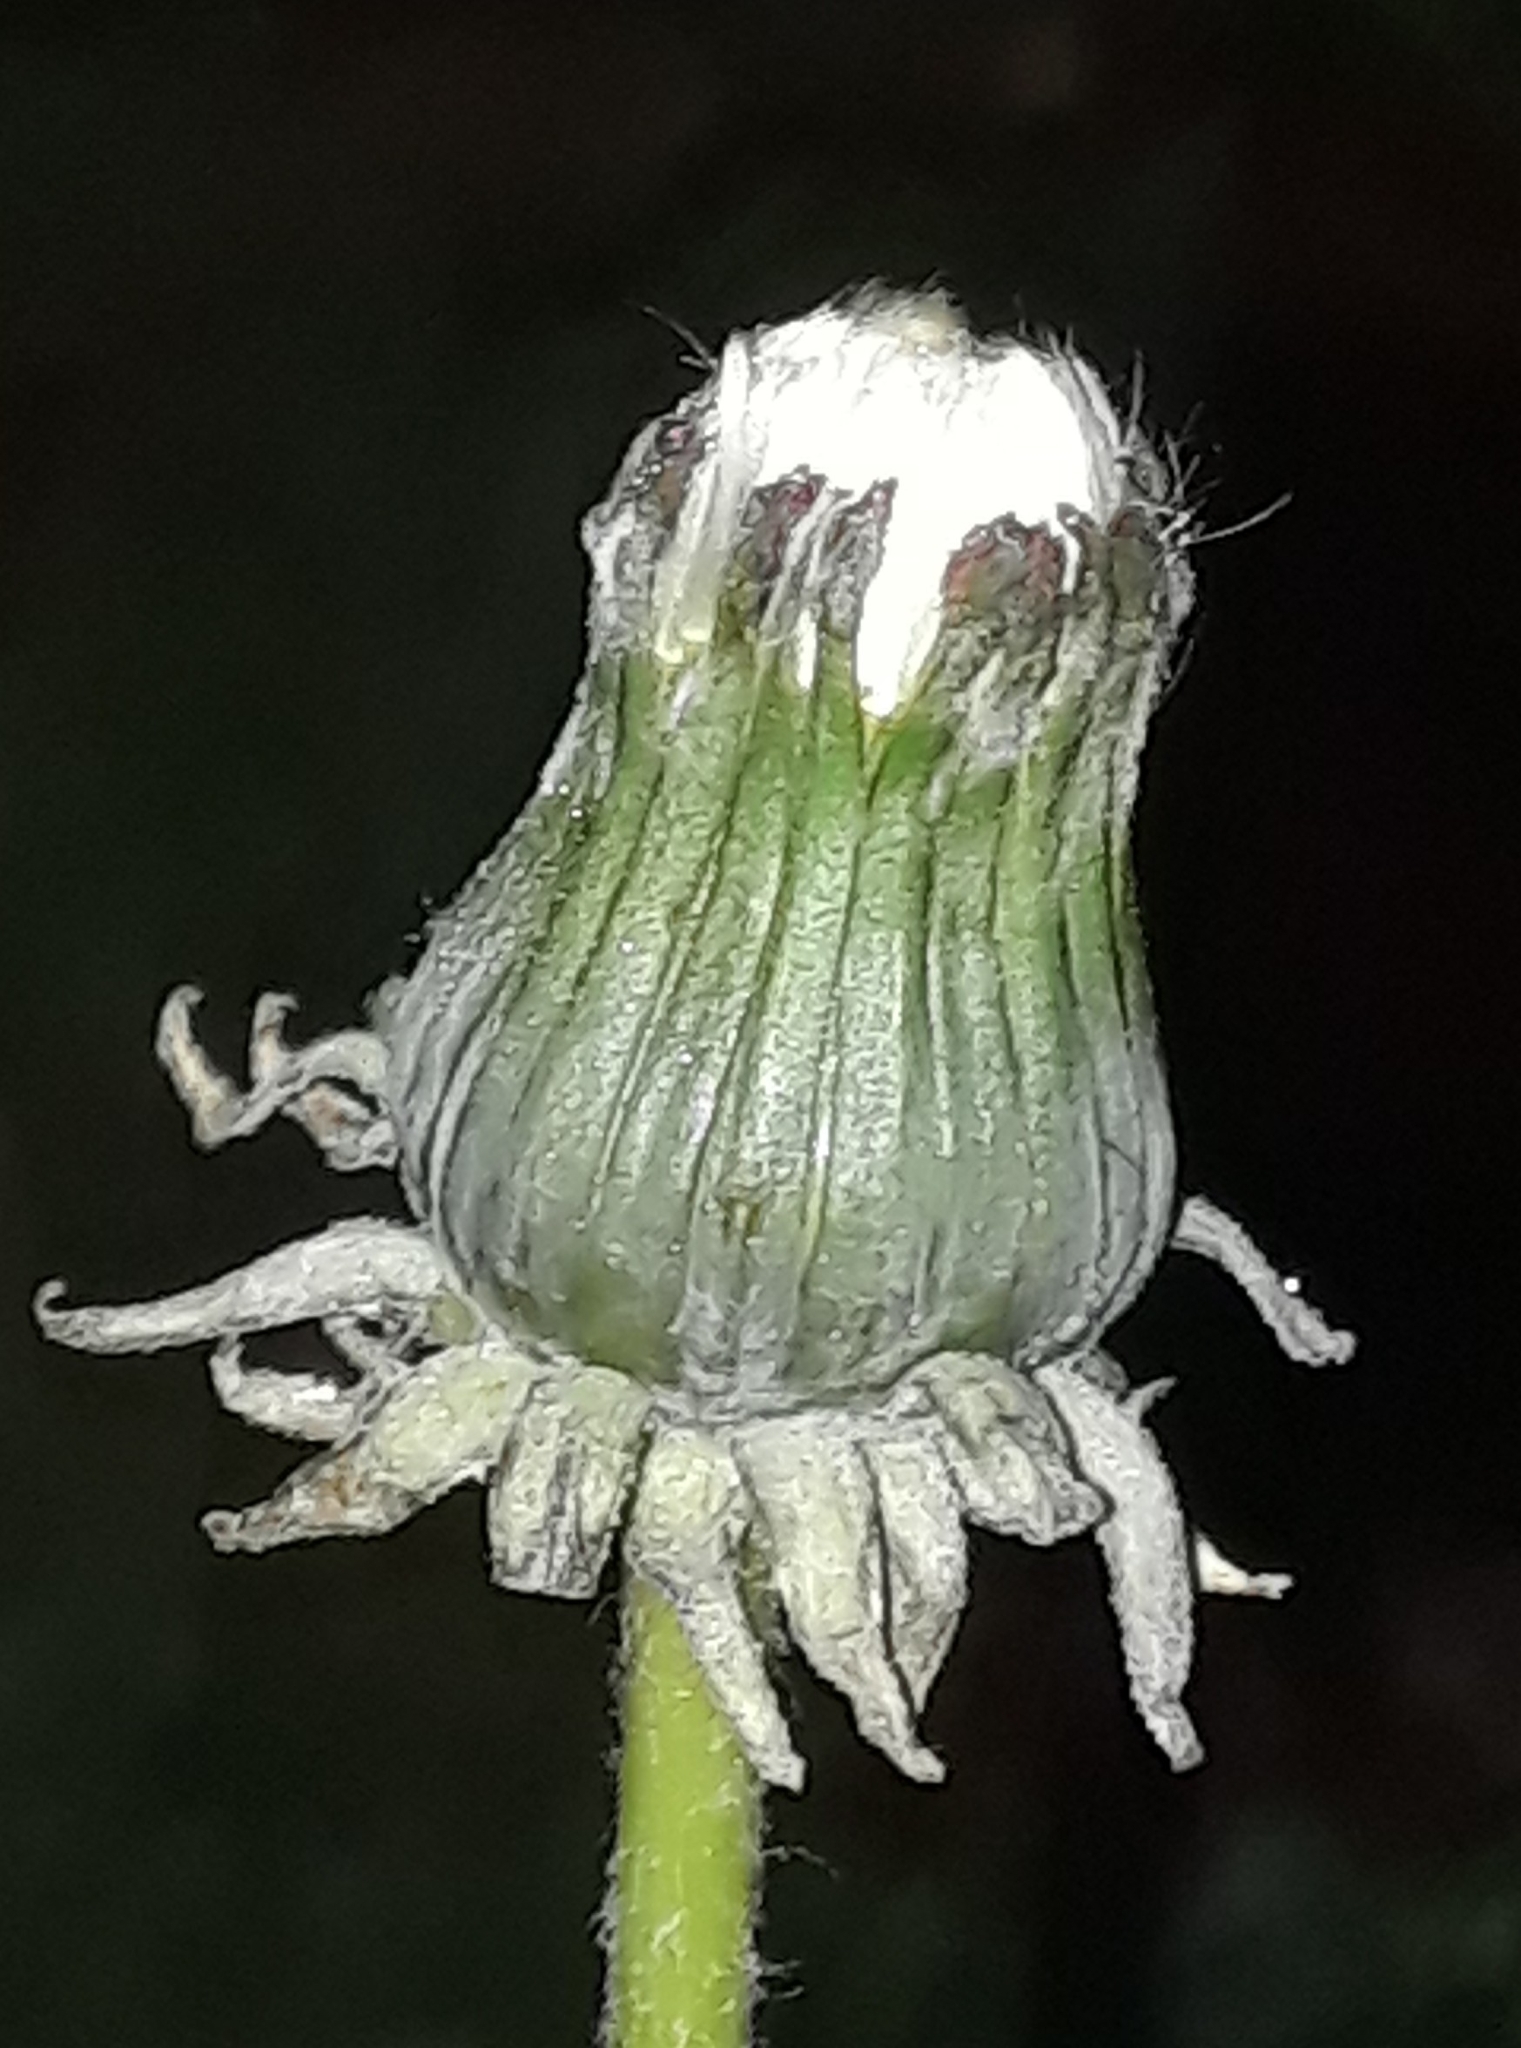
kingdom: Plantae
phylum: Tracheophyta
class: Magnoliopsida
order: Asterales
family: Asteraceae
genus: Taraxacum
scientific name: Taraxacum officinale
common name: Common dandelion
